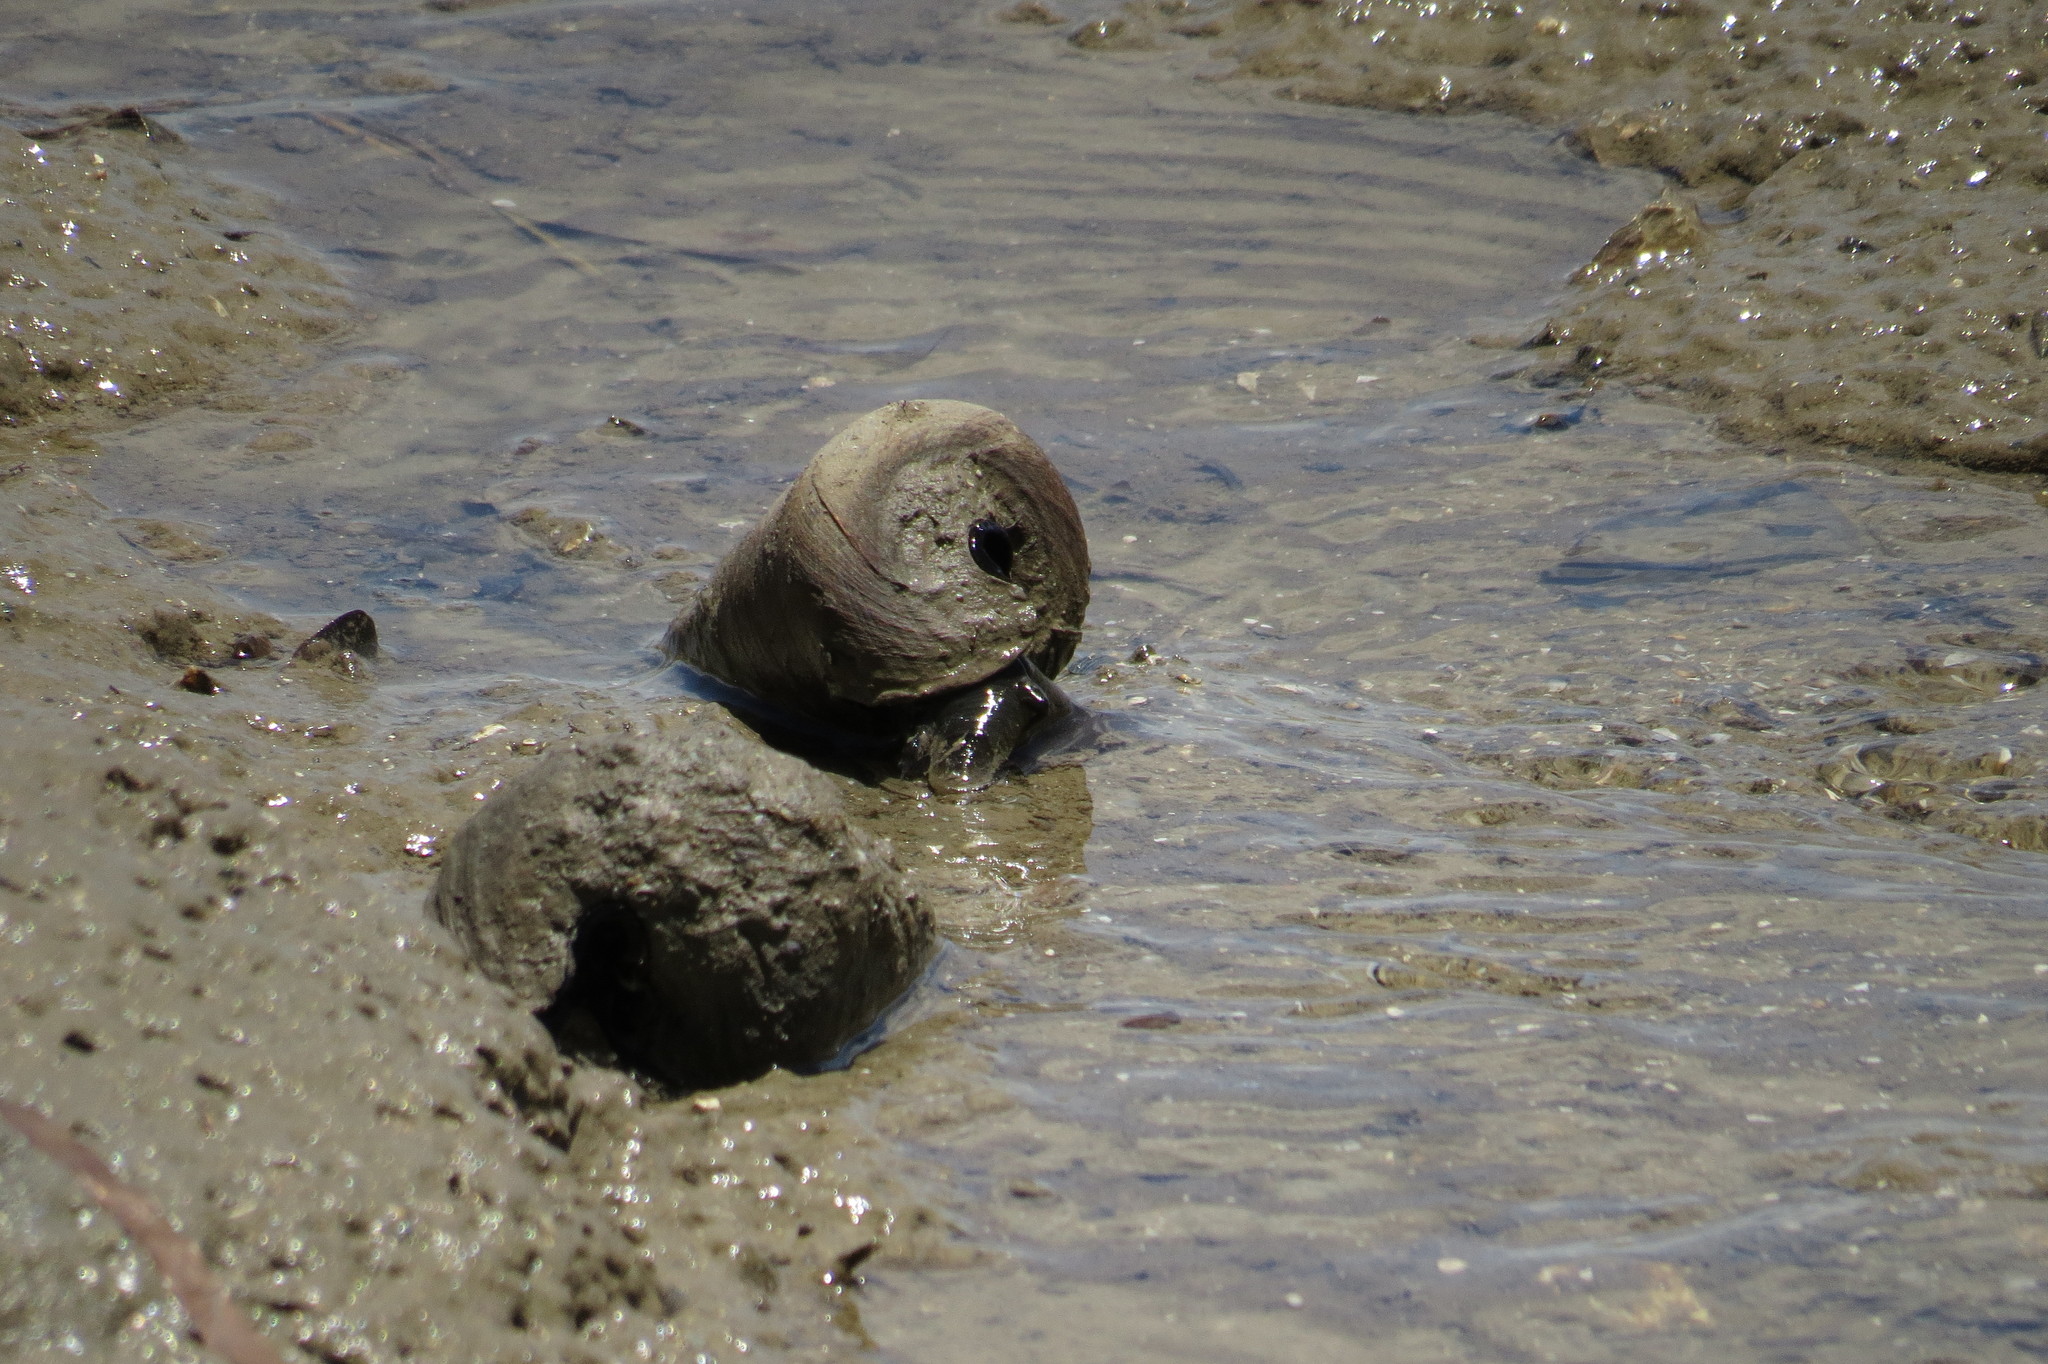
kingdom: Animalia
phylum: Mollusca
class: Gastropoda
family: Potamididae
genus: Telescopium
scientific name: Telescopium telescopium
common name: Telescope creeper
